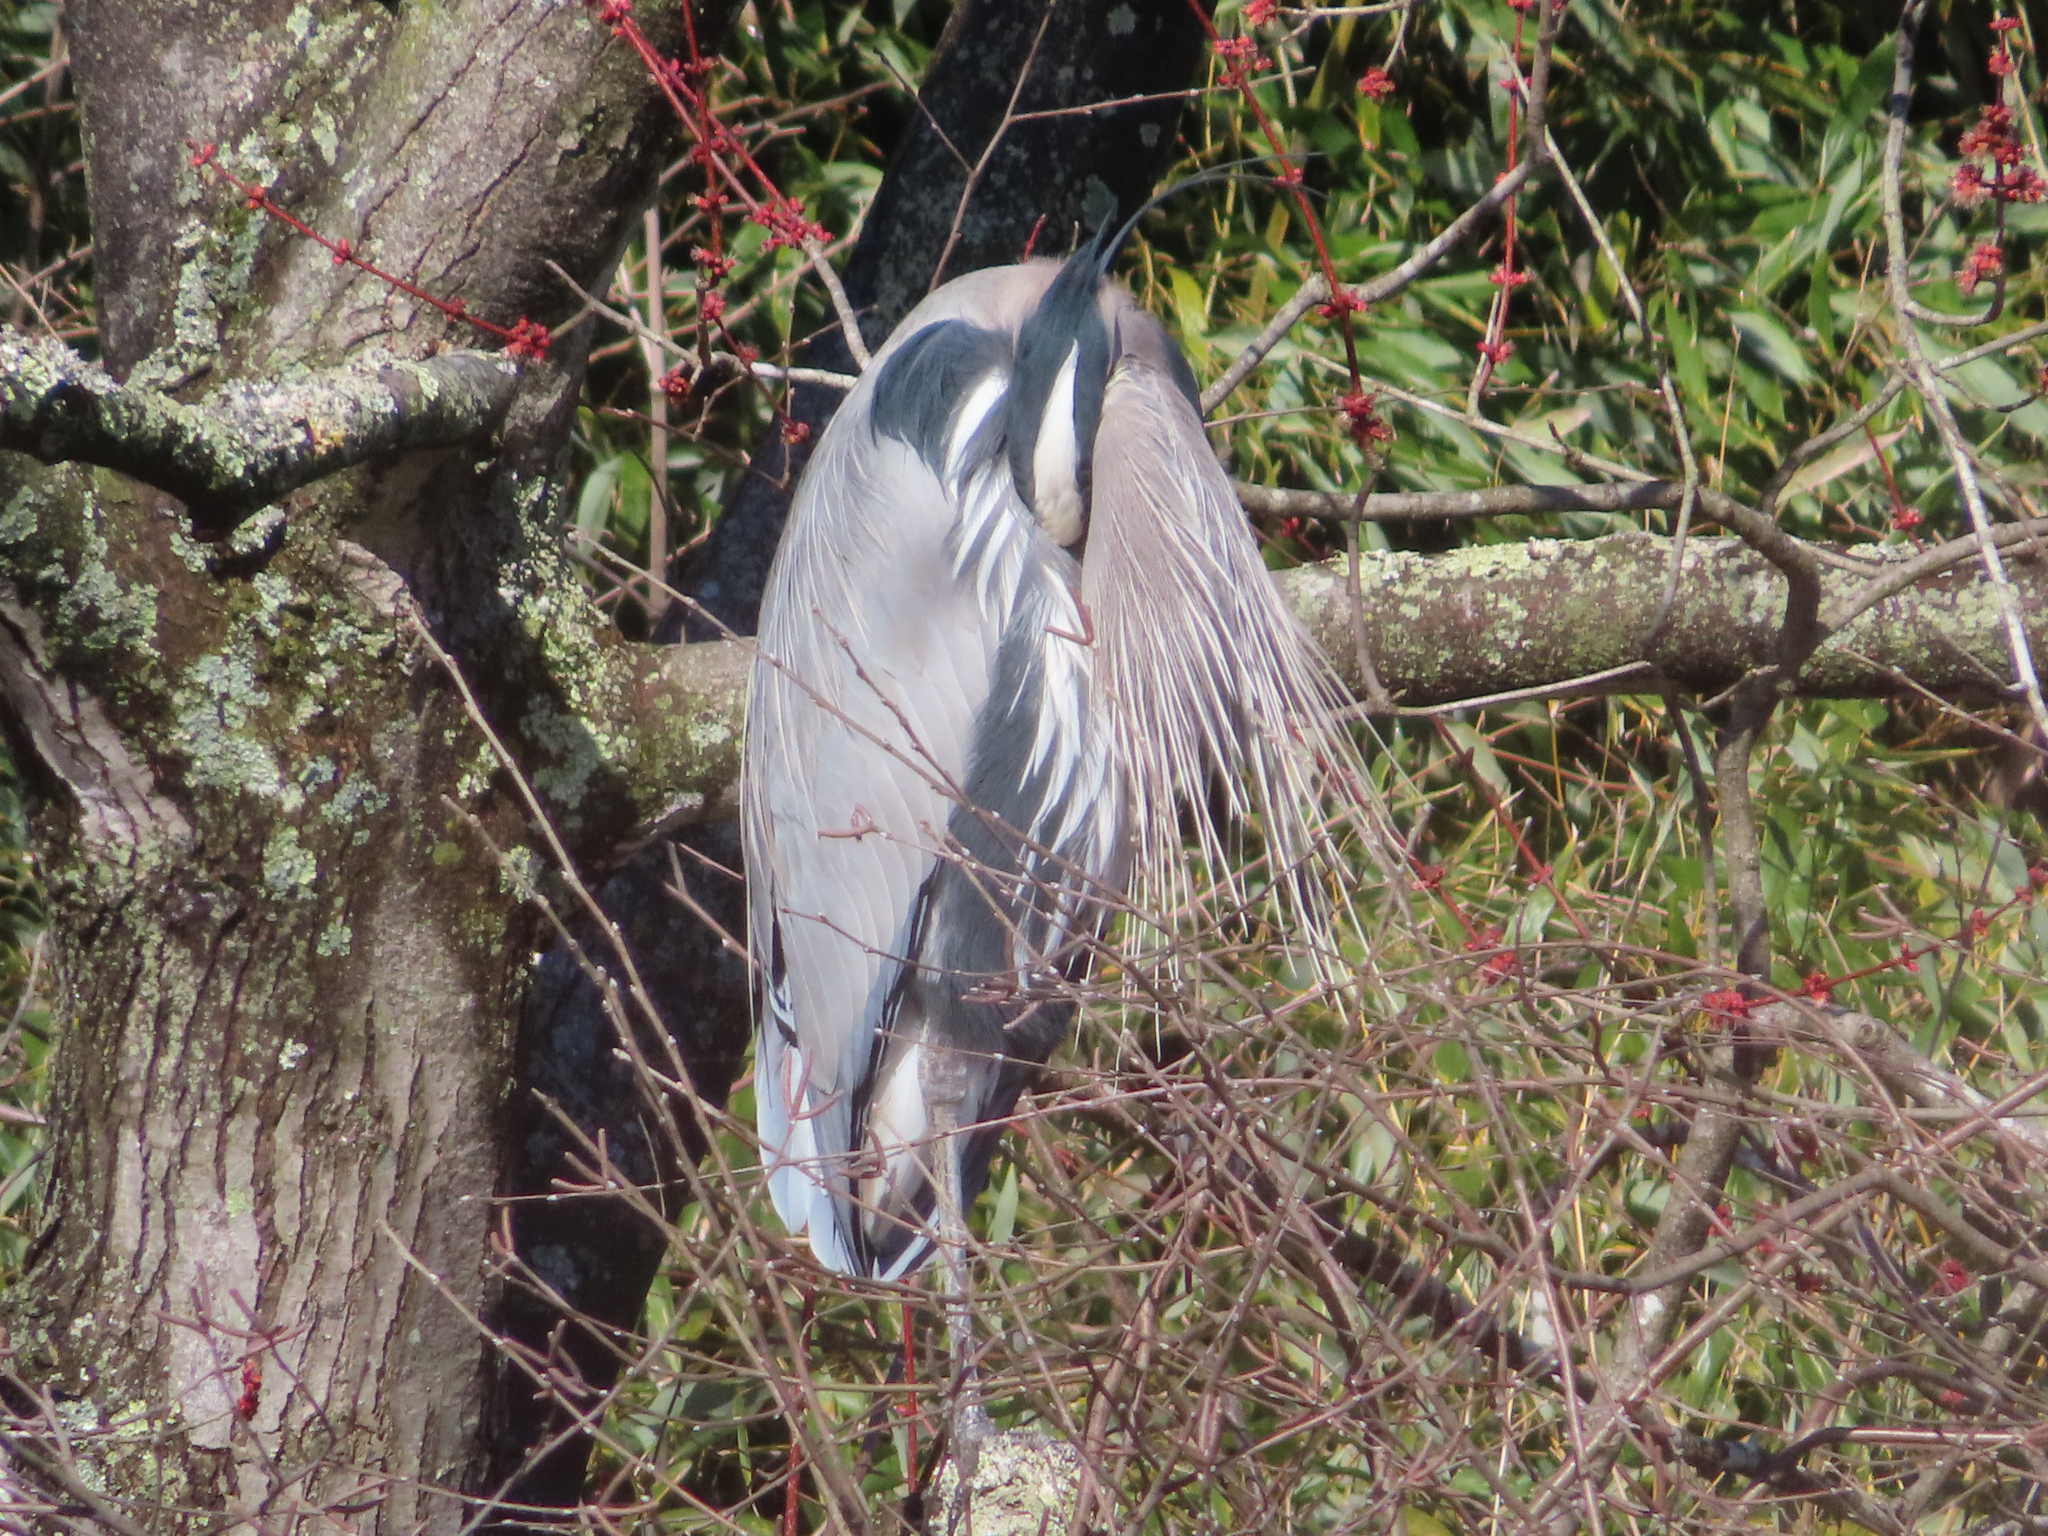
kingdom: Animalia
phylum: Chordata
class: Aves
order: Pelecaniformes
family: Ardeidae
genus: Ardea
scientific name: Ardea herodias
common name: Great blue heron
